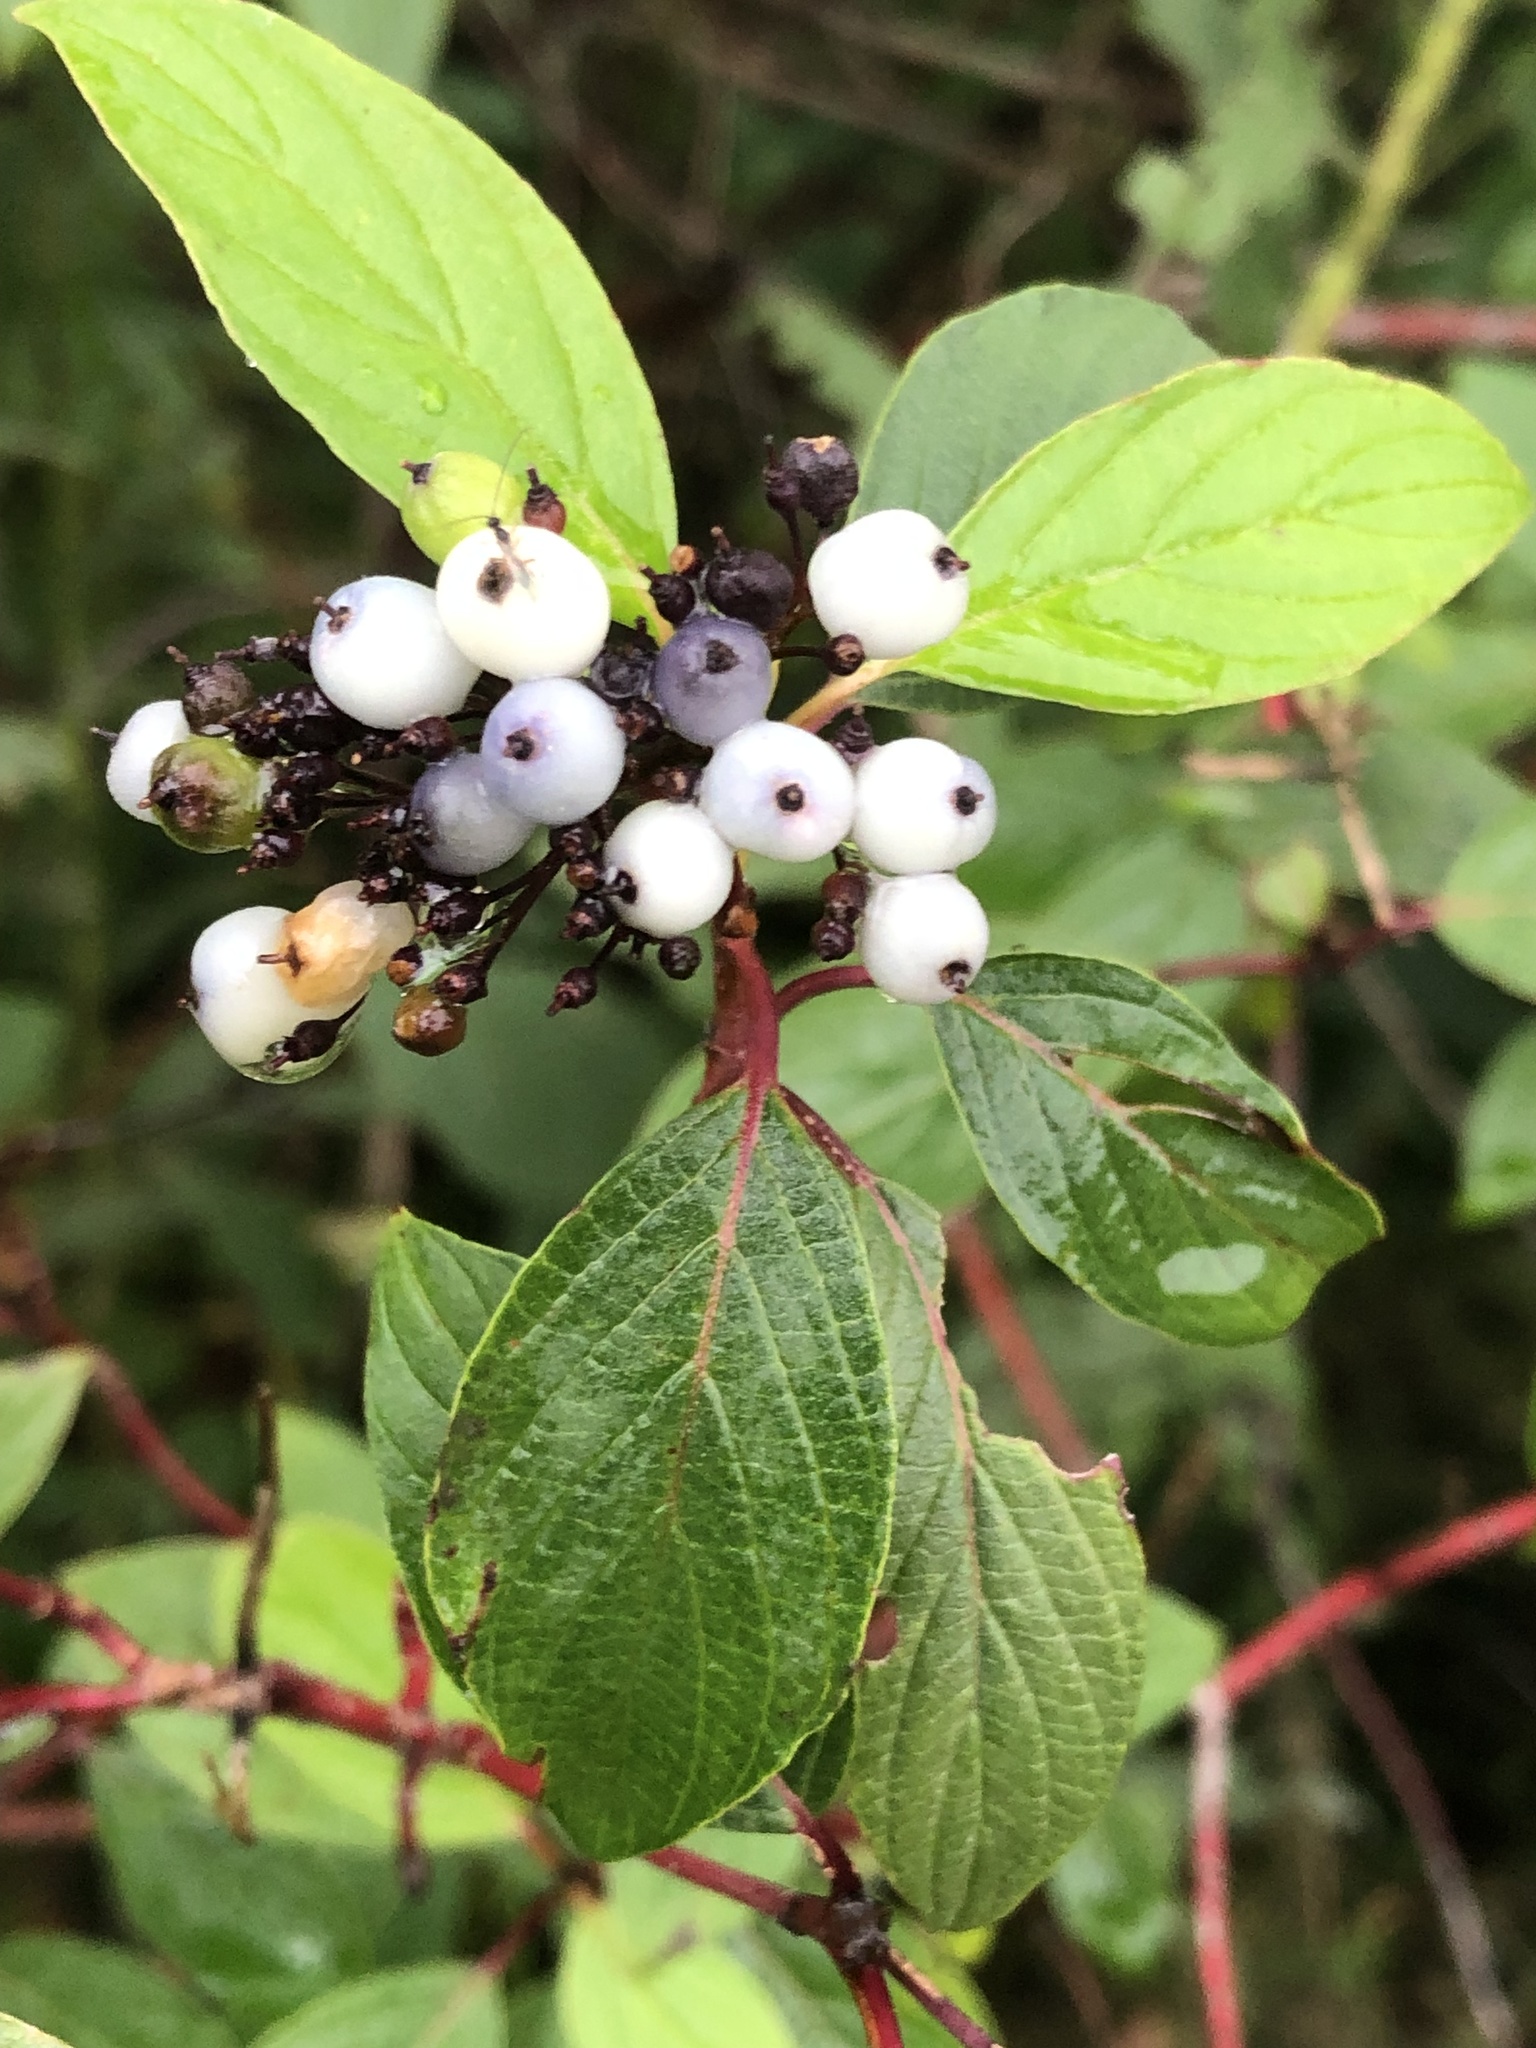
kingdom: Plantae
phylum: Tracheophyta
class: Magnoliopsida
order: Cornales
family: Cornaceae
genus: Cornus
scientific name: Cornus sericea
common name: Red-osier dogwood
